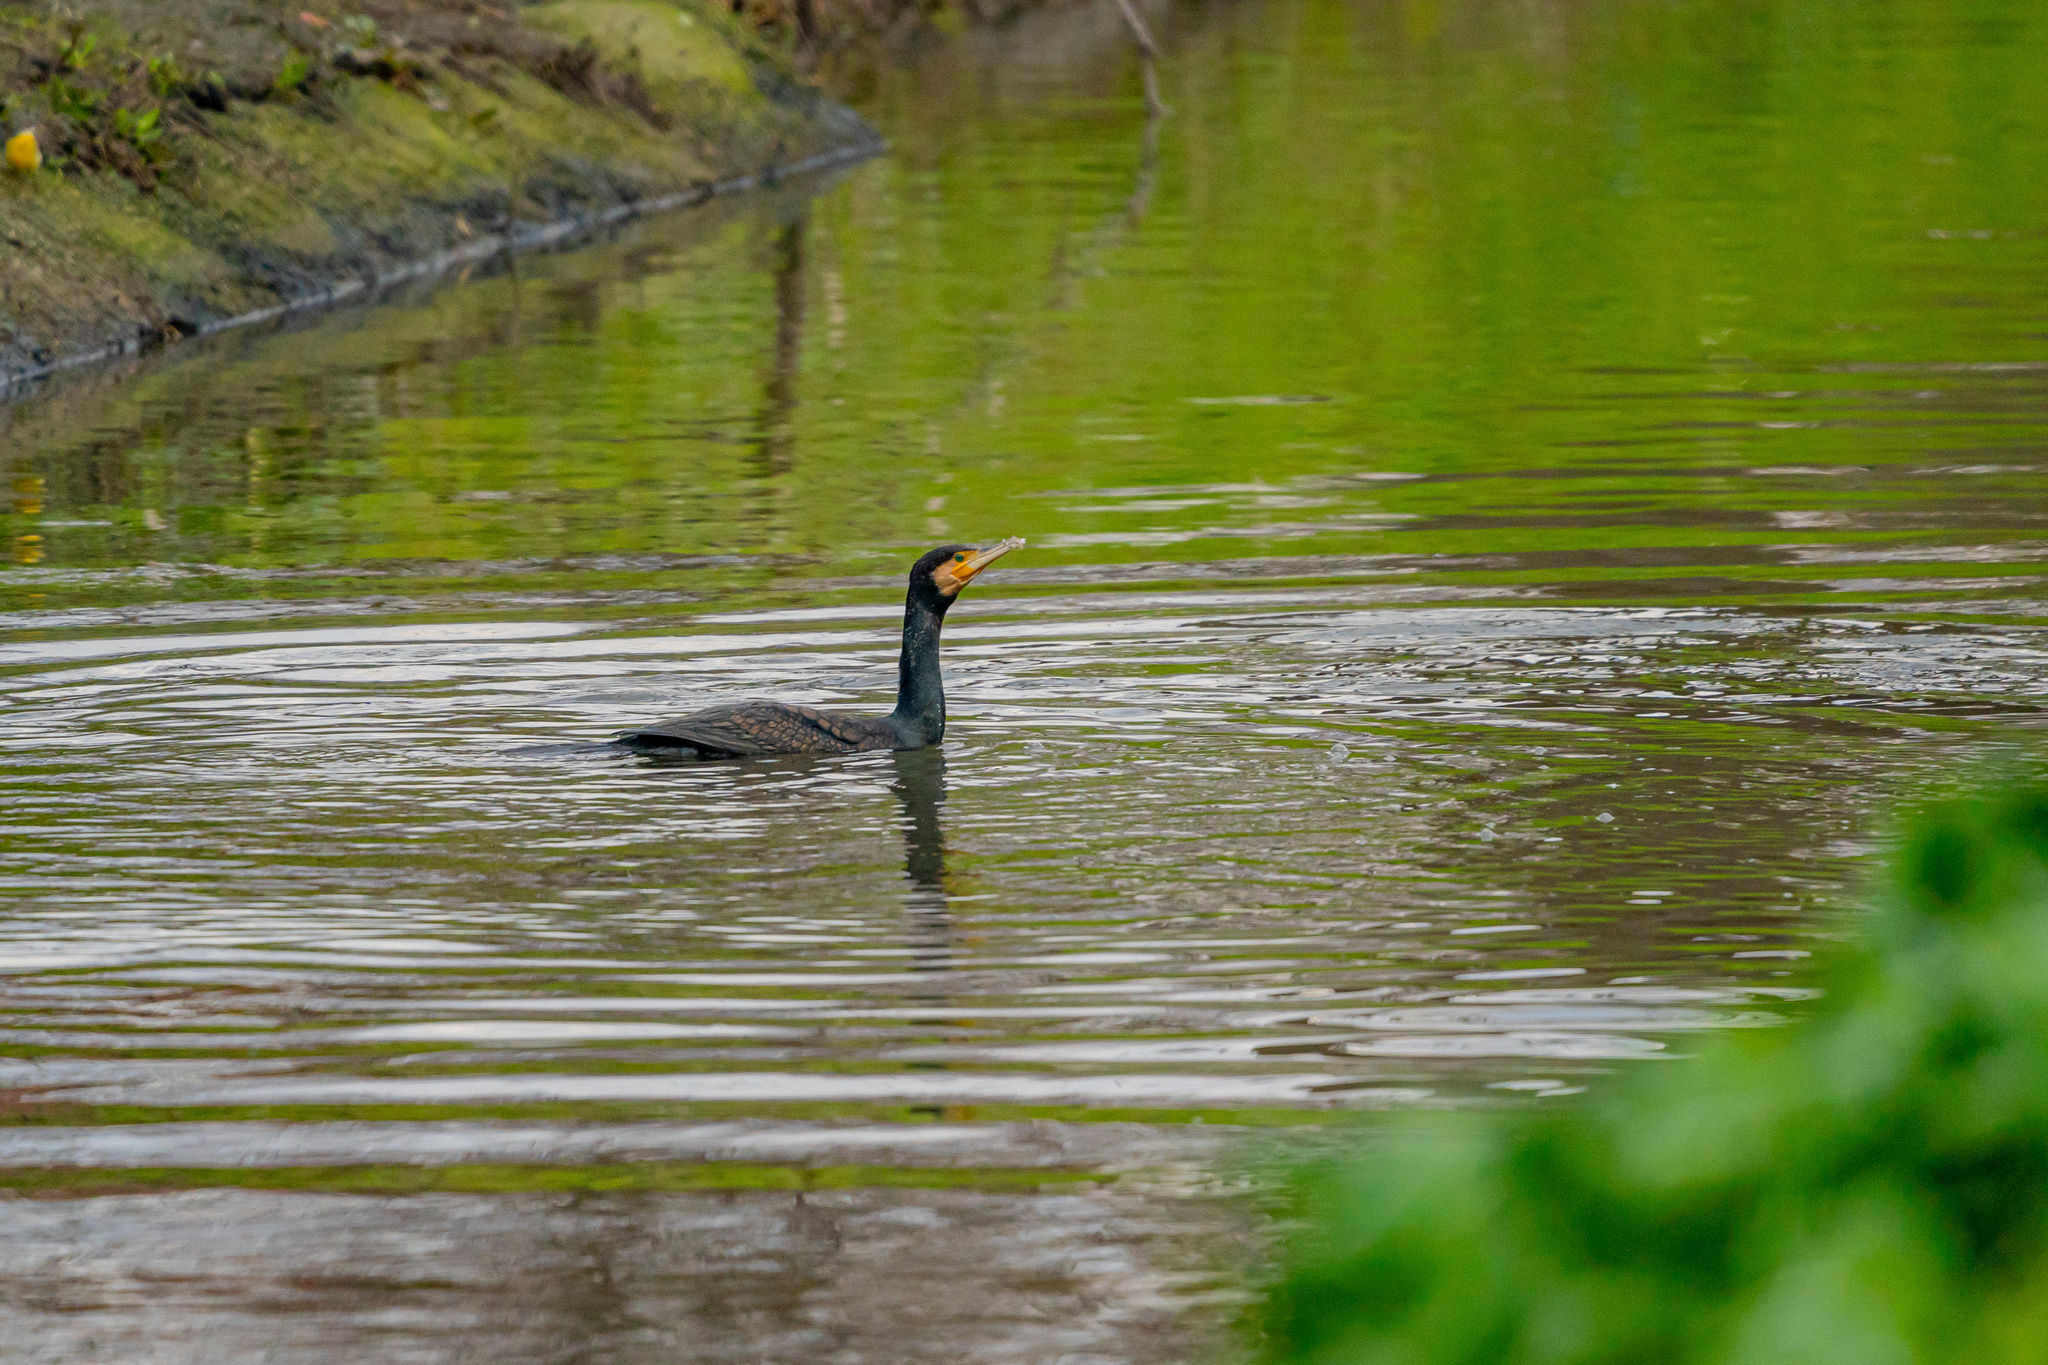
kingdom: Animalia
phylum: Chordata
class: Aves
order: Suliformes
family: Phalacrocoracidae
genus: Phalacrocorax
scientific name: Phalacrocorax carbo
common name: Great cormorant
